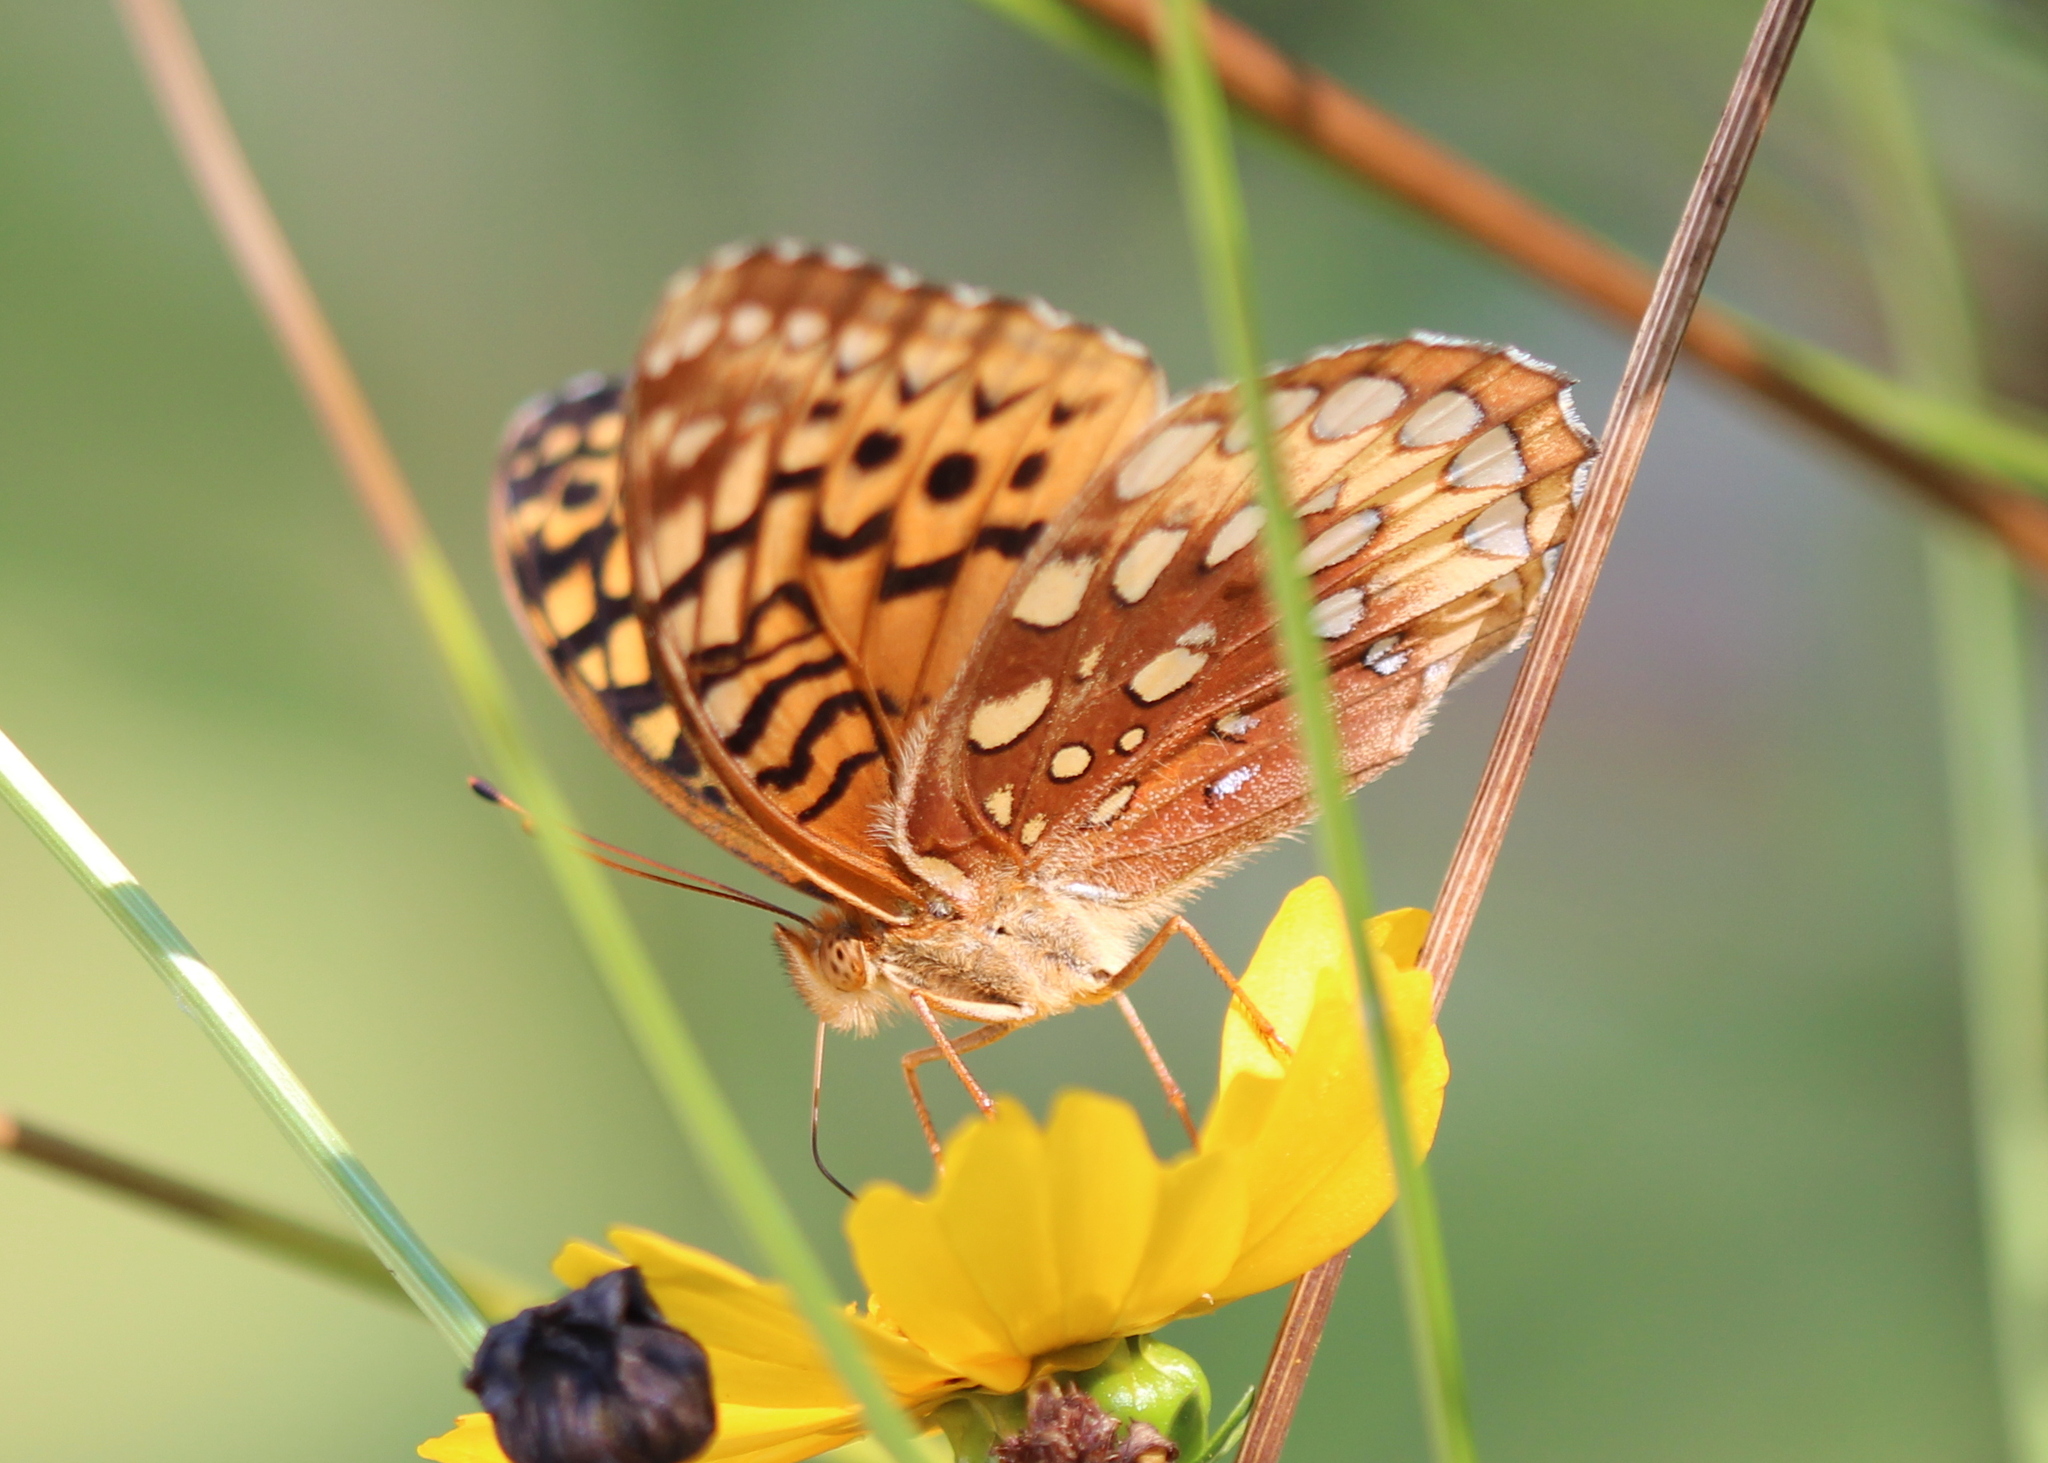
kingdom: Animalia
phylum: Arthropoda
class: Insecta
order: Lepidoptera
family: Nymphalidae
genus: Speyeria
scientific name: Speyeria cybele
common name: Great spangled fritillary
